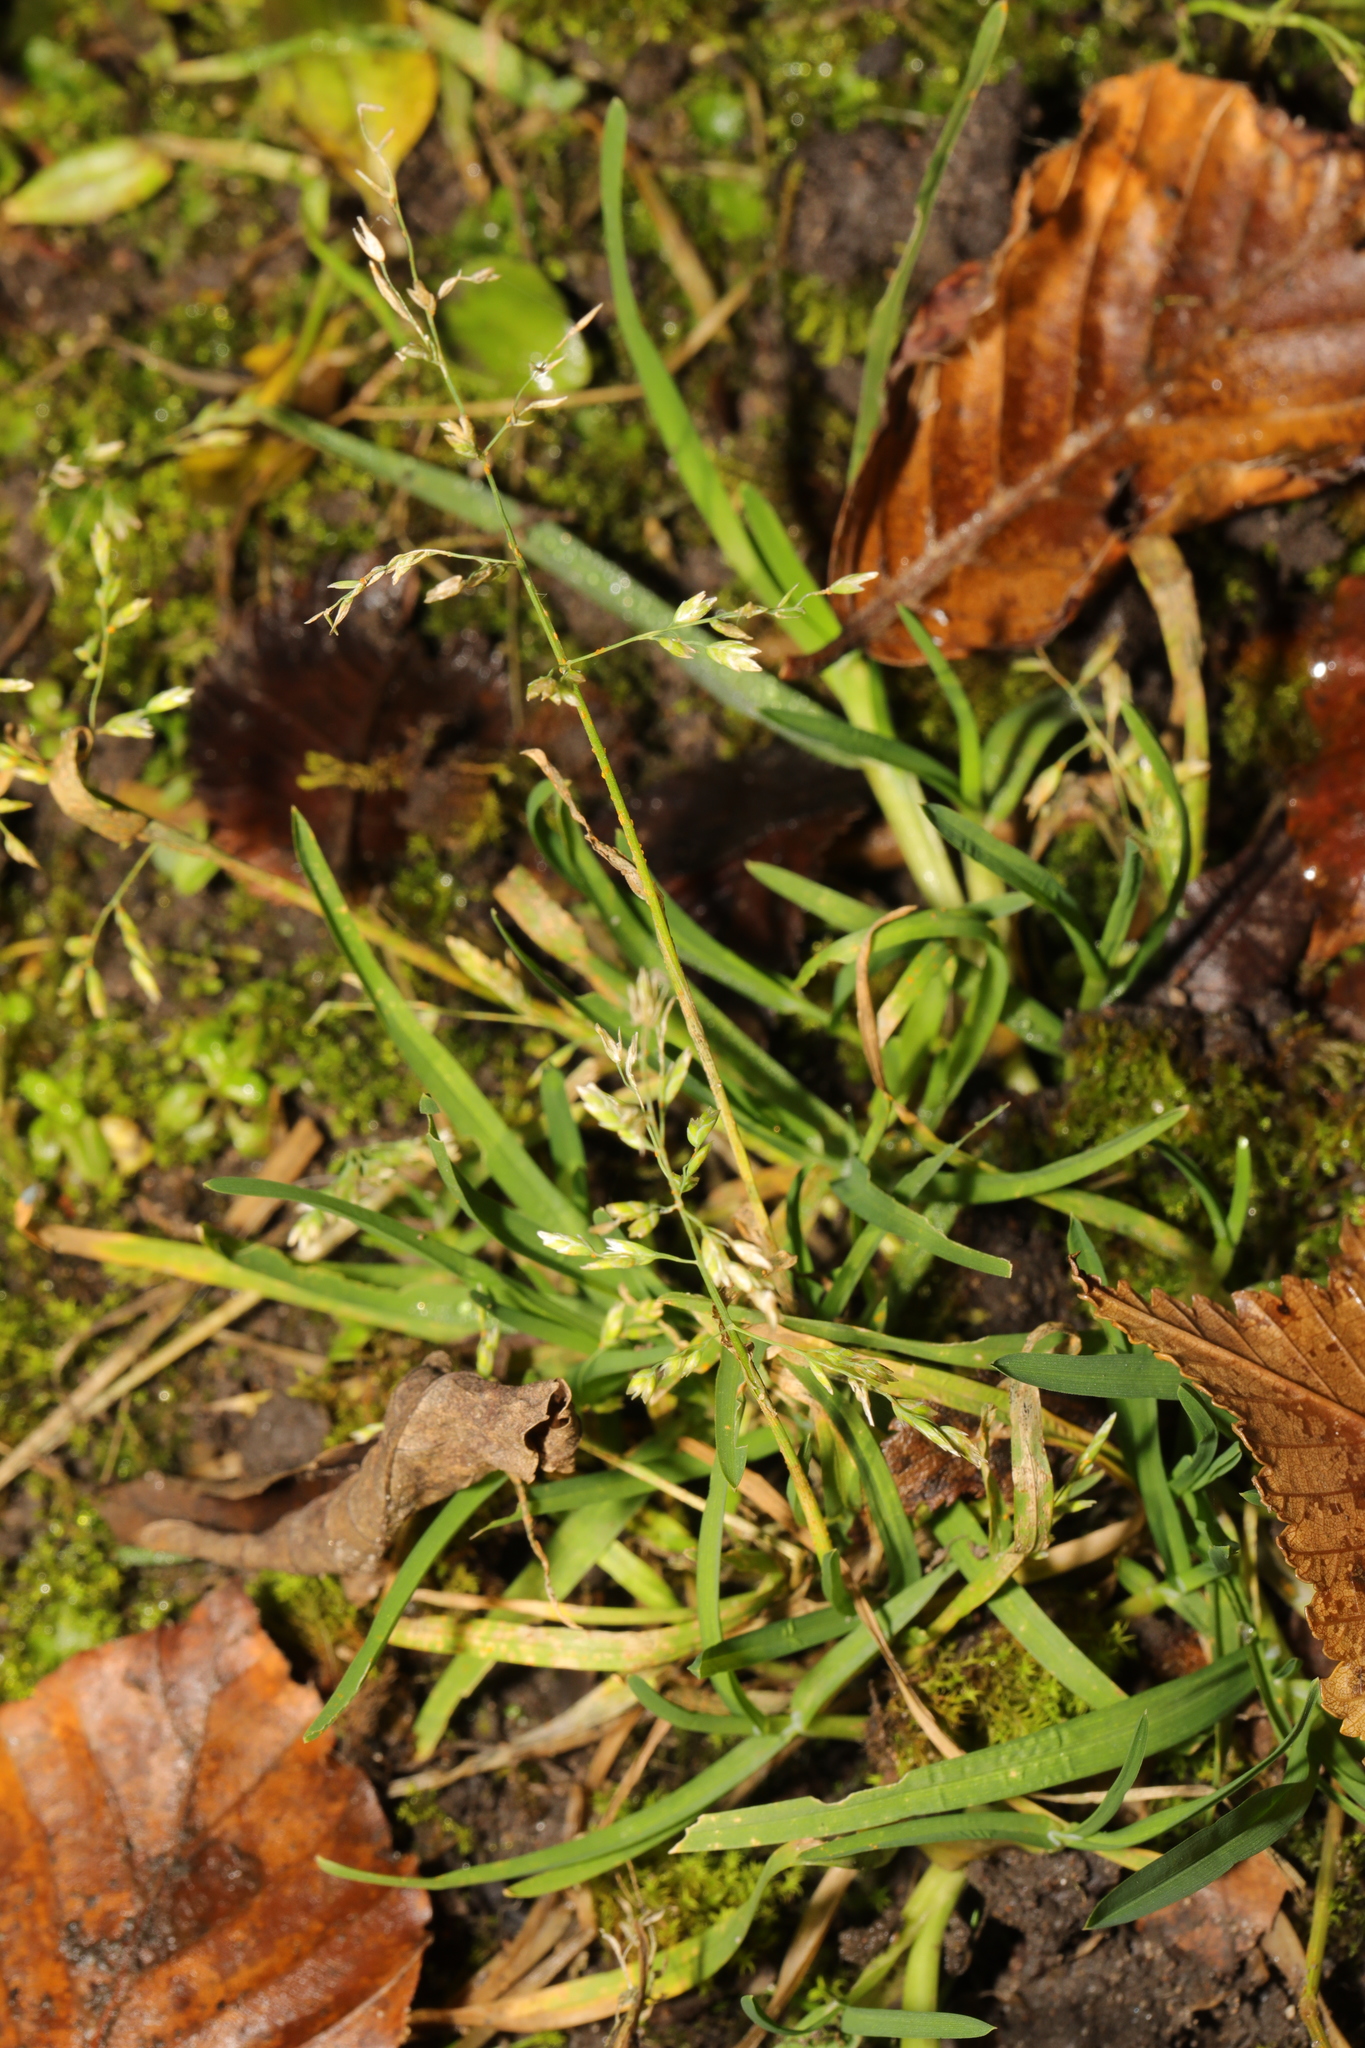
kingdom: Plantae
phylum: Tracheophyta
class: Liliopsida
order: Poales
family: Poaceae
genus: Poa
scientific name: Poa annua
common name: Annual bluegrass
